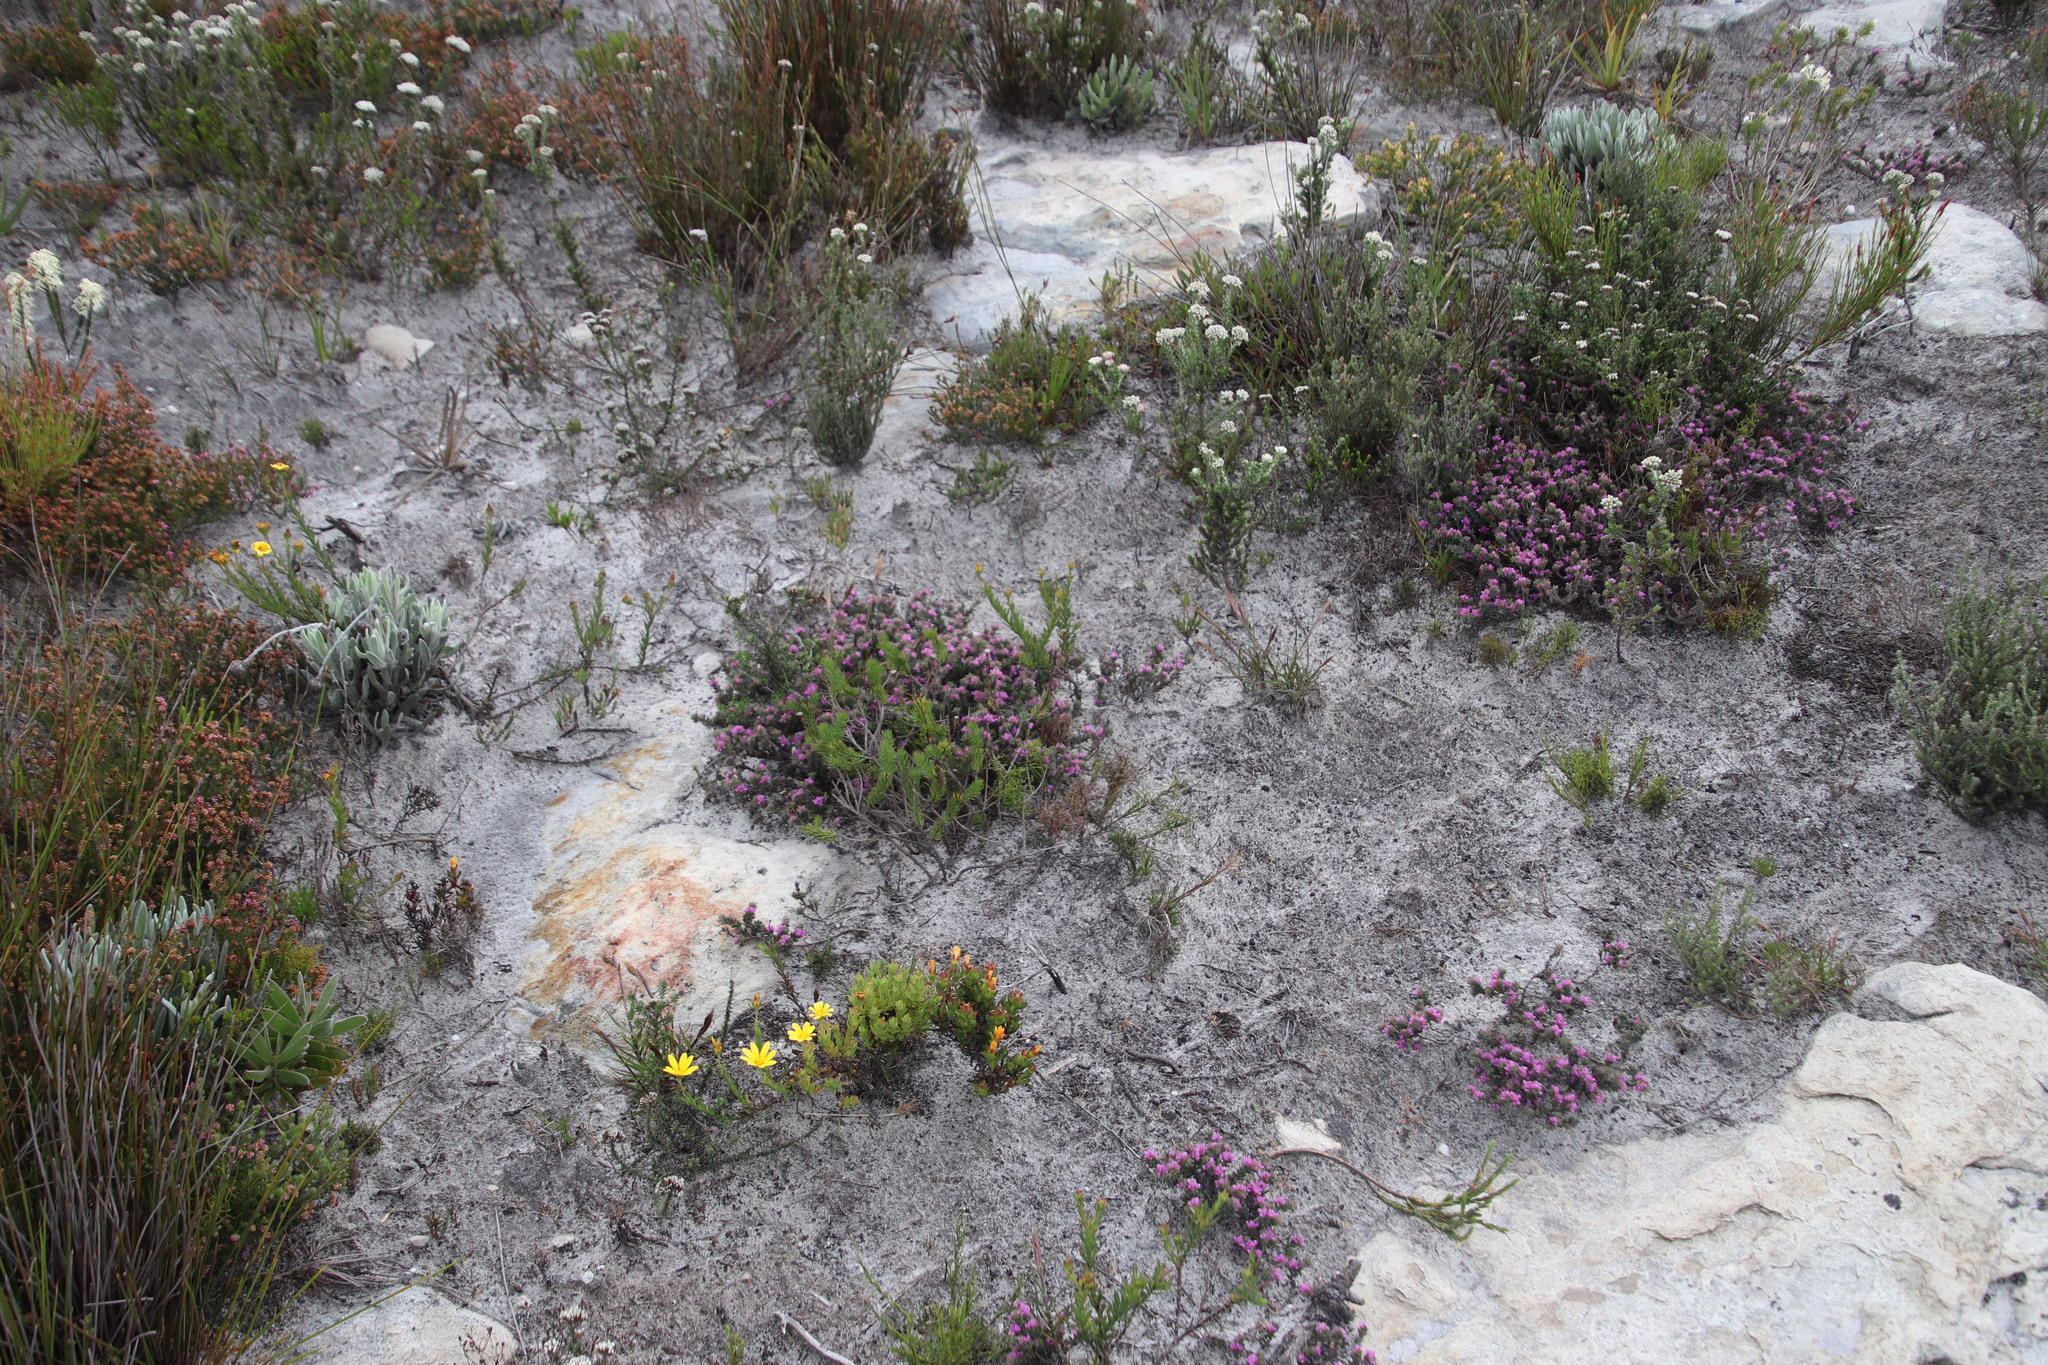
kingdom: Plantae
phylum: Tracheophyta
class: Magnoliopsida
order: Fabales
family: Fabaceae
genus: Indigofera
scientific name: Indigofera glomerata
